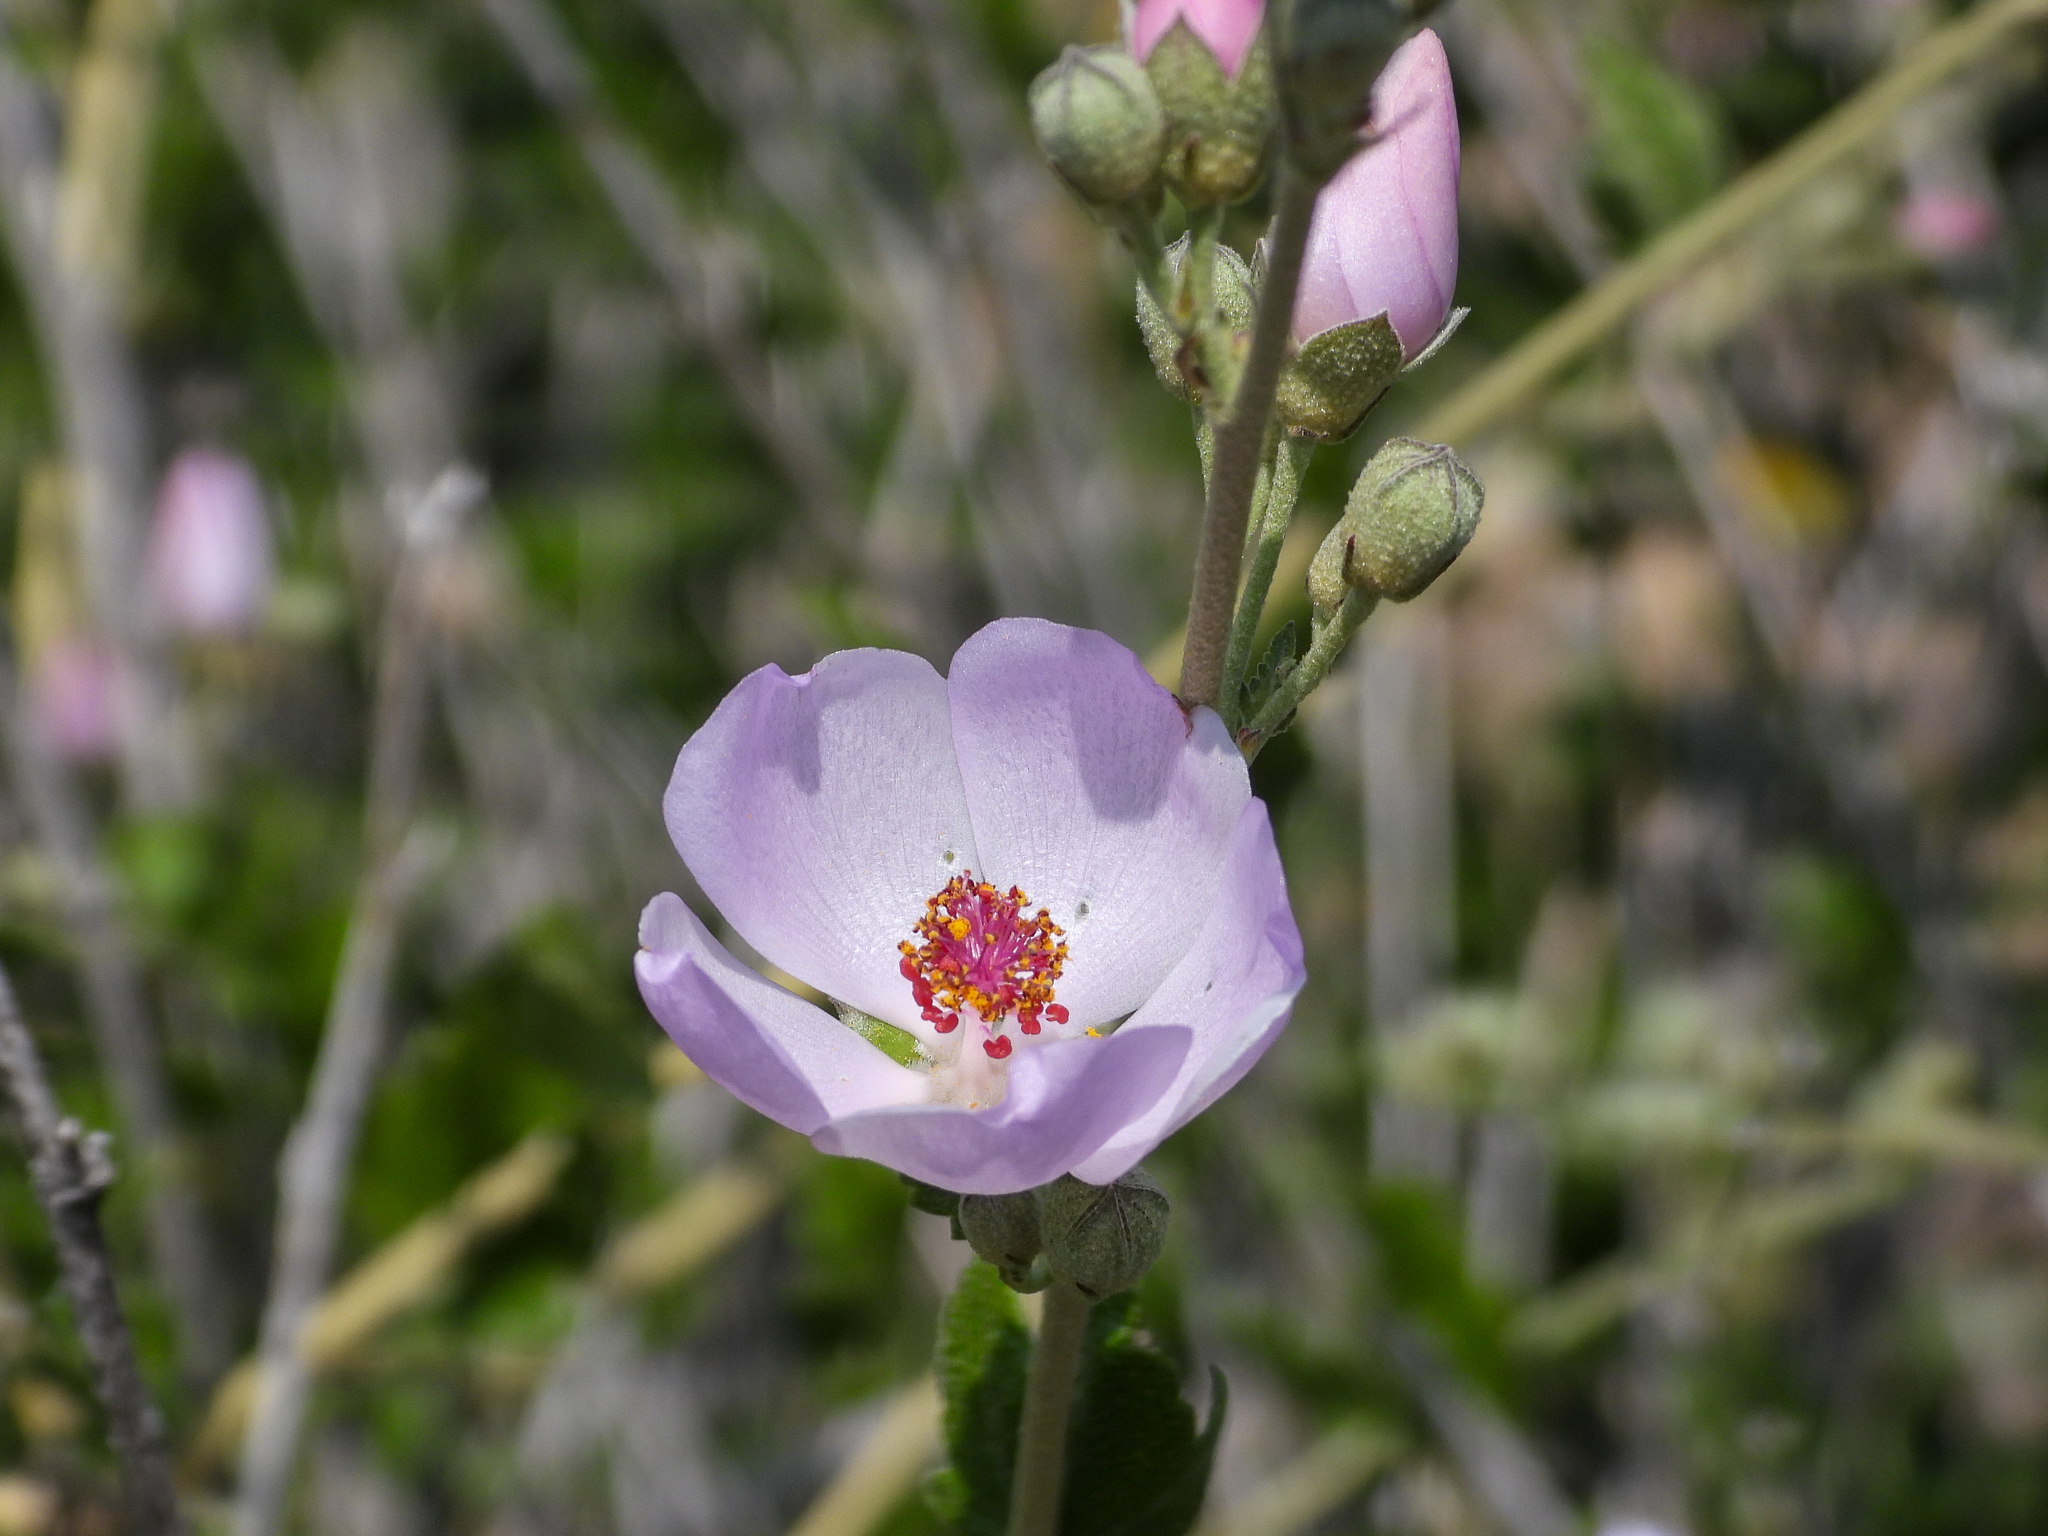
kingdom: Plantae
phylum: Tracheophyta
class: Magnoliopsida
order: Malvales
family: Malvaceae
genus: Malacothamnus
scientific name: Malacothamnus fasciculatus
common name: Sant cruz island bush-mallow
